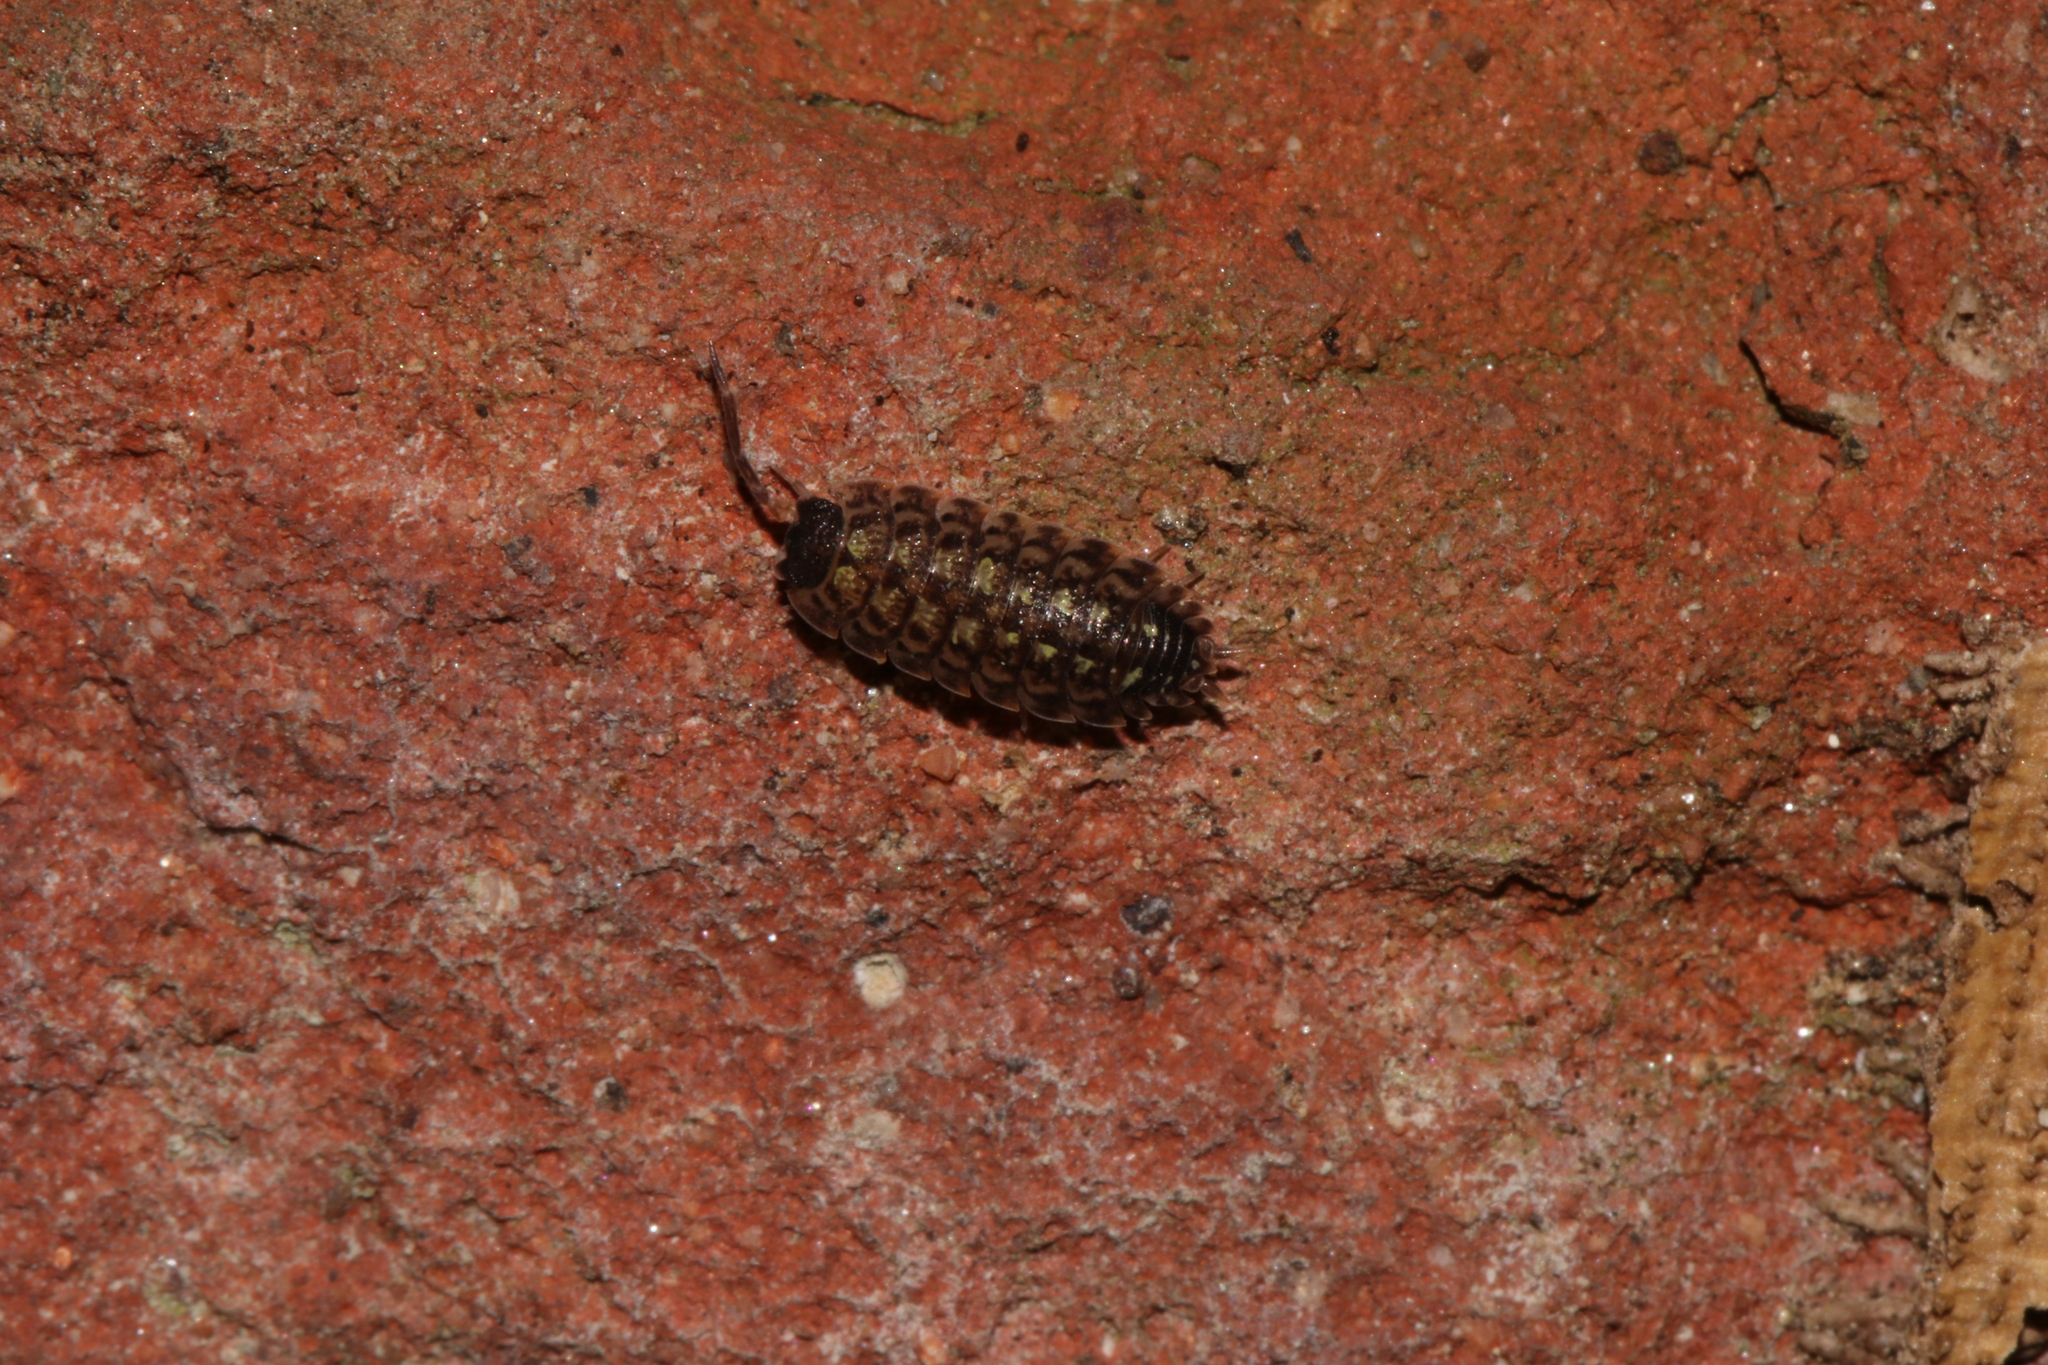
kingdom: Animalia
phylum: Arthropoda
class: Malacostraca
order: Isopoda
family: Porcellionidae
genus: Porcellio
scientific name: Porcellio spinicornis
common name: Painted woodlouse
